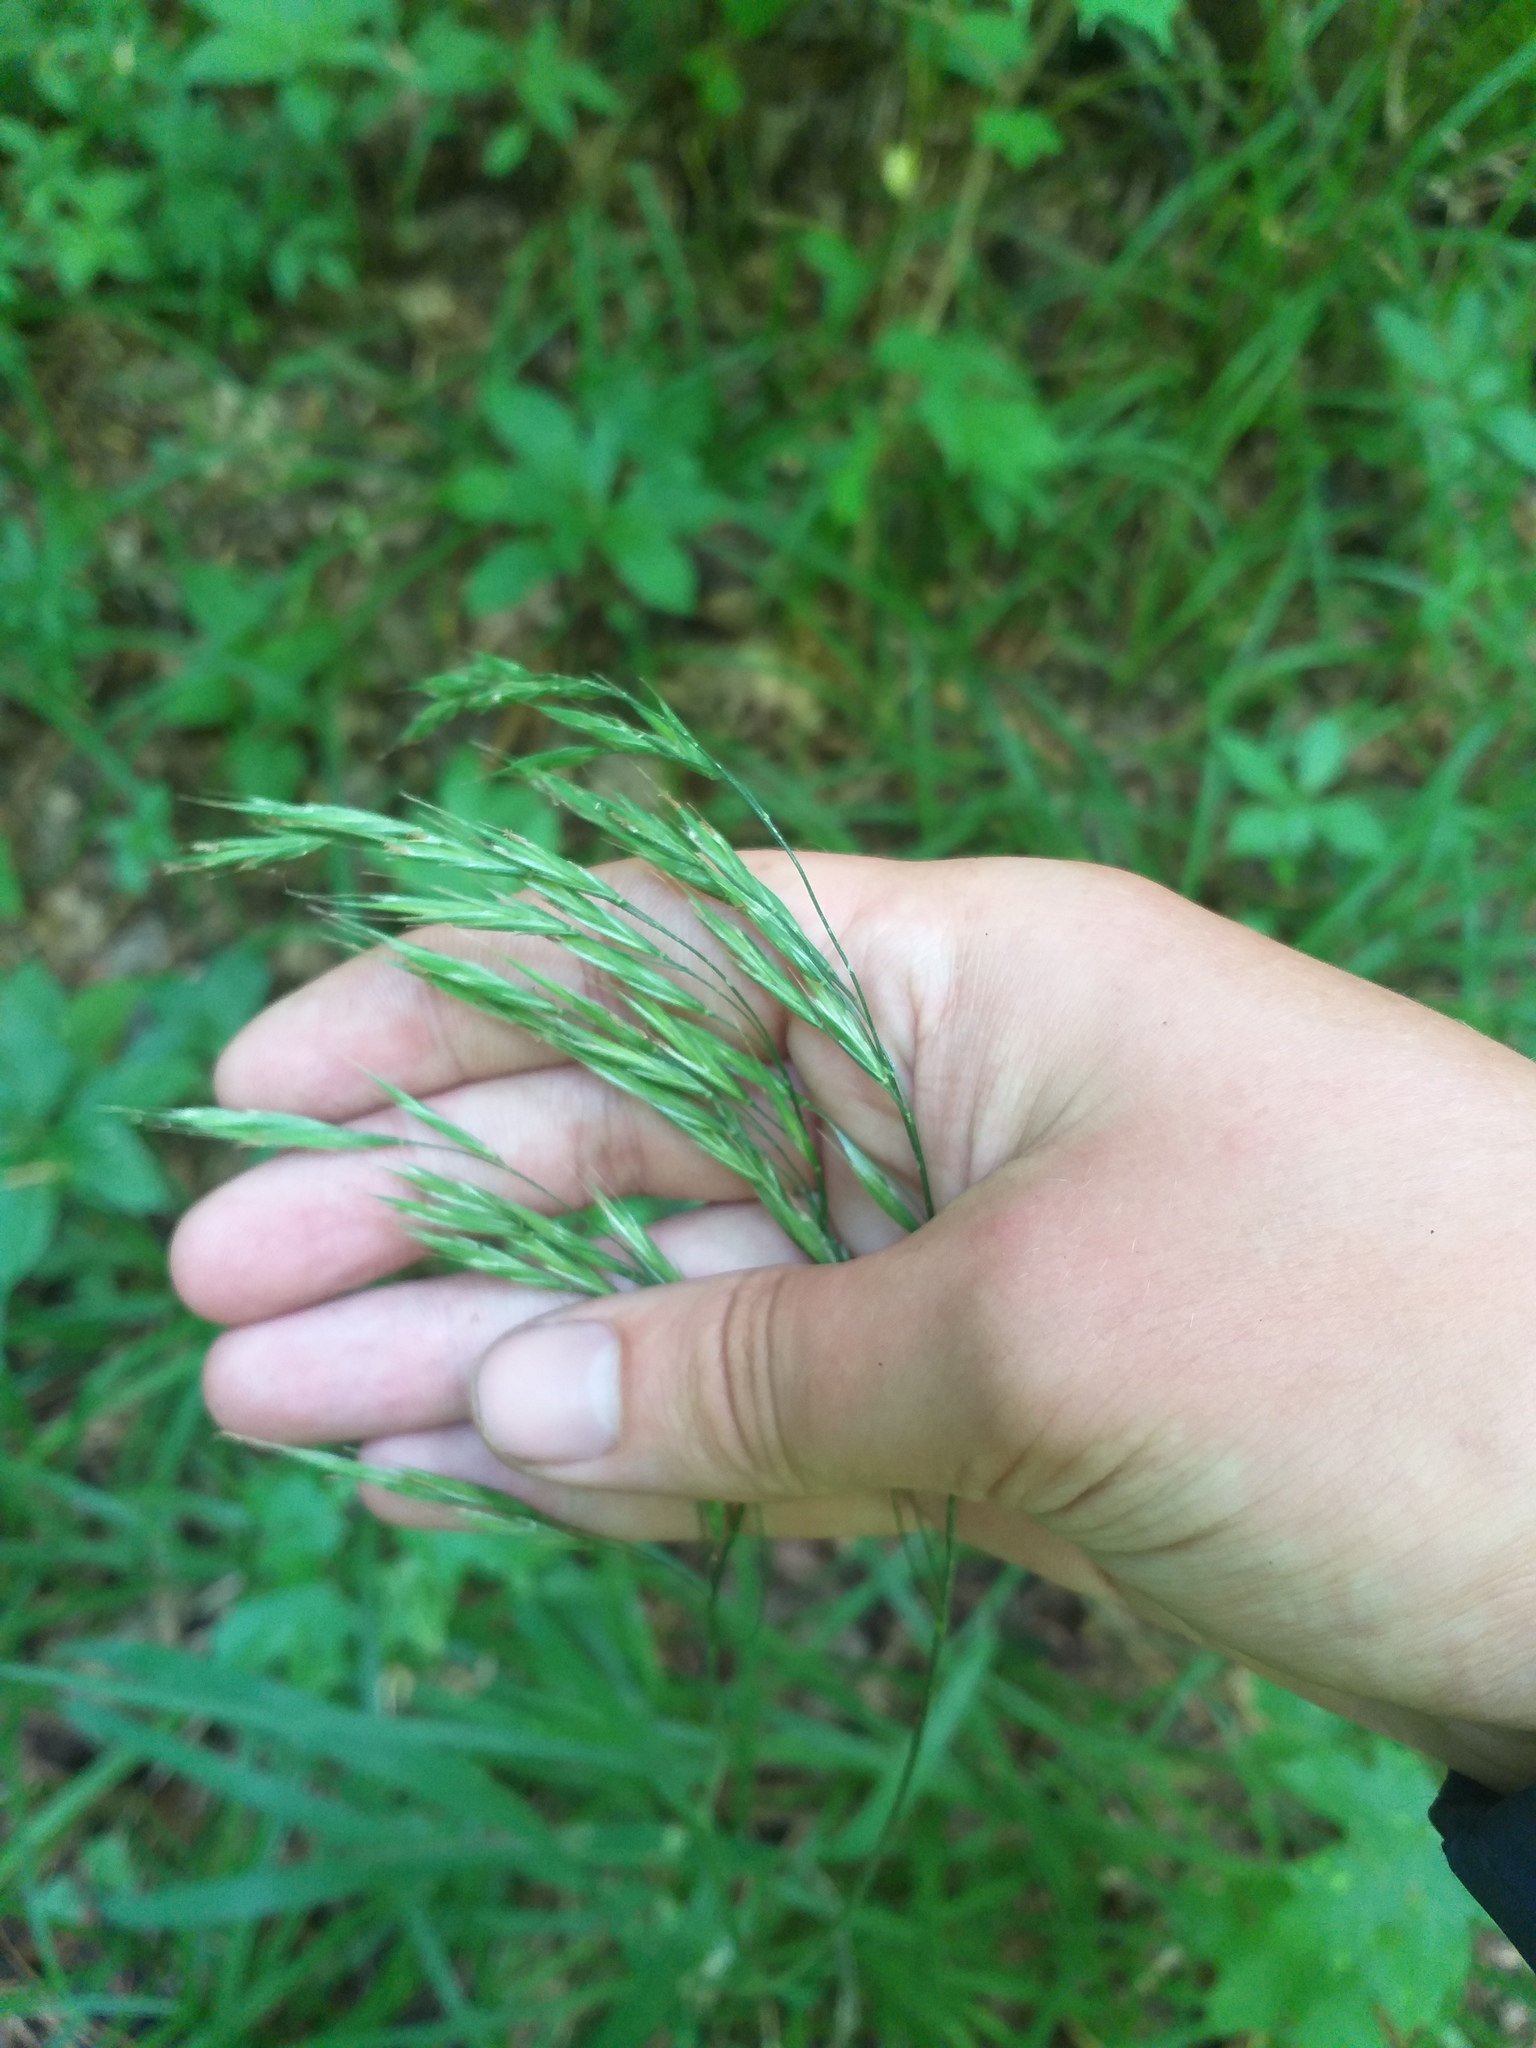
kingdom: Plantae
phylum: Tracheophyta
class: Liliopsida
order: Poales
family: Poaceae
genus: Bromus
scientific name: Bromus benekenii
